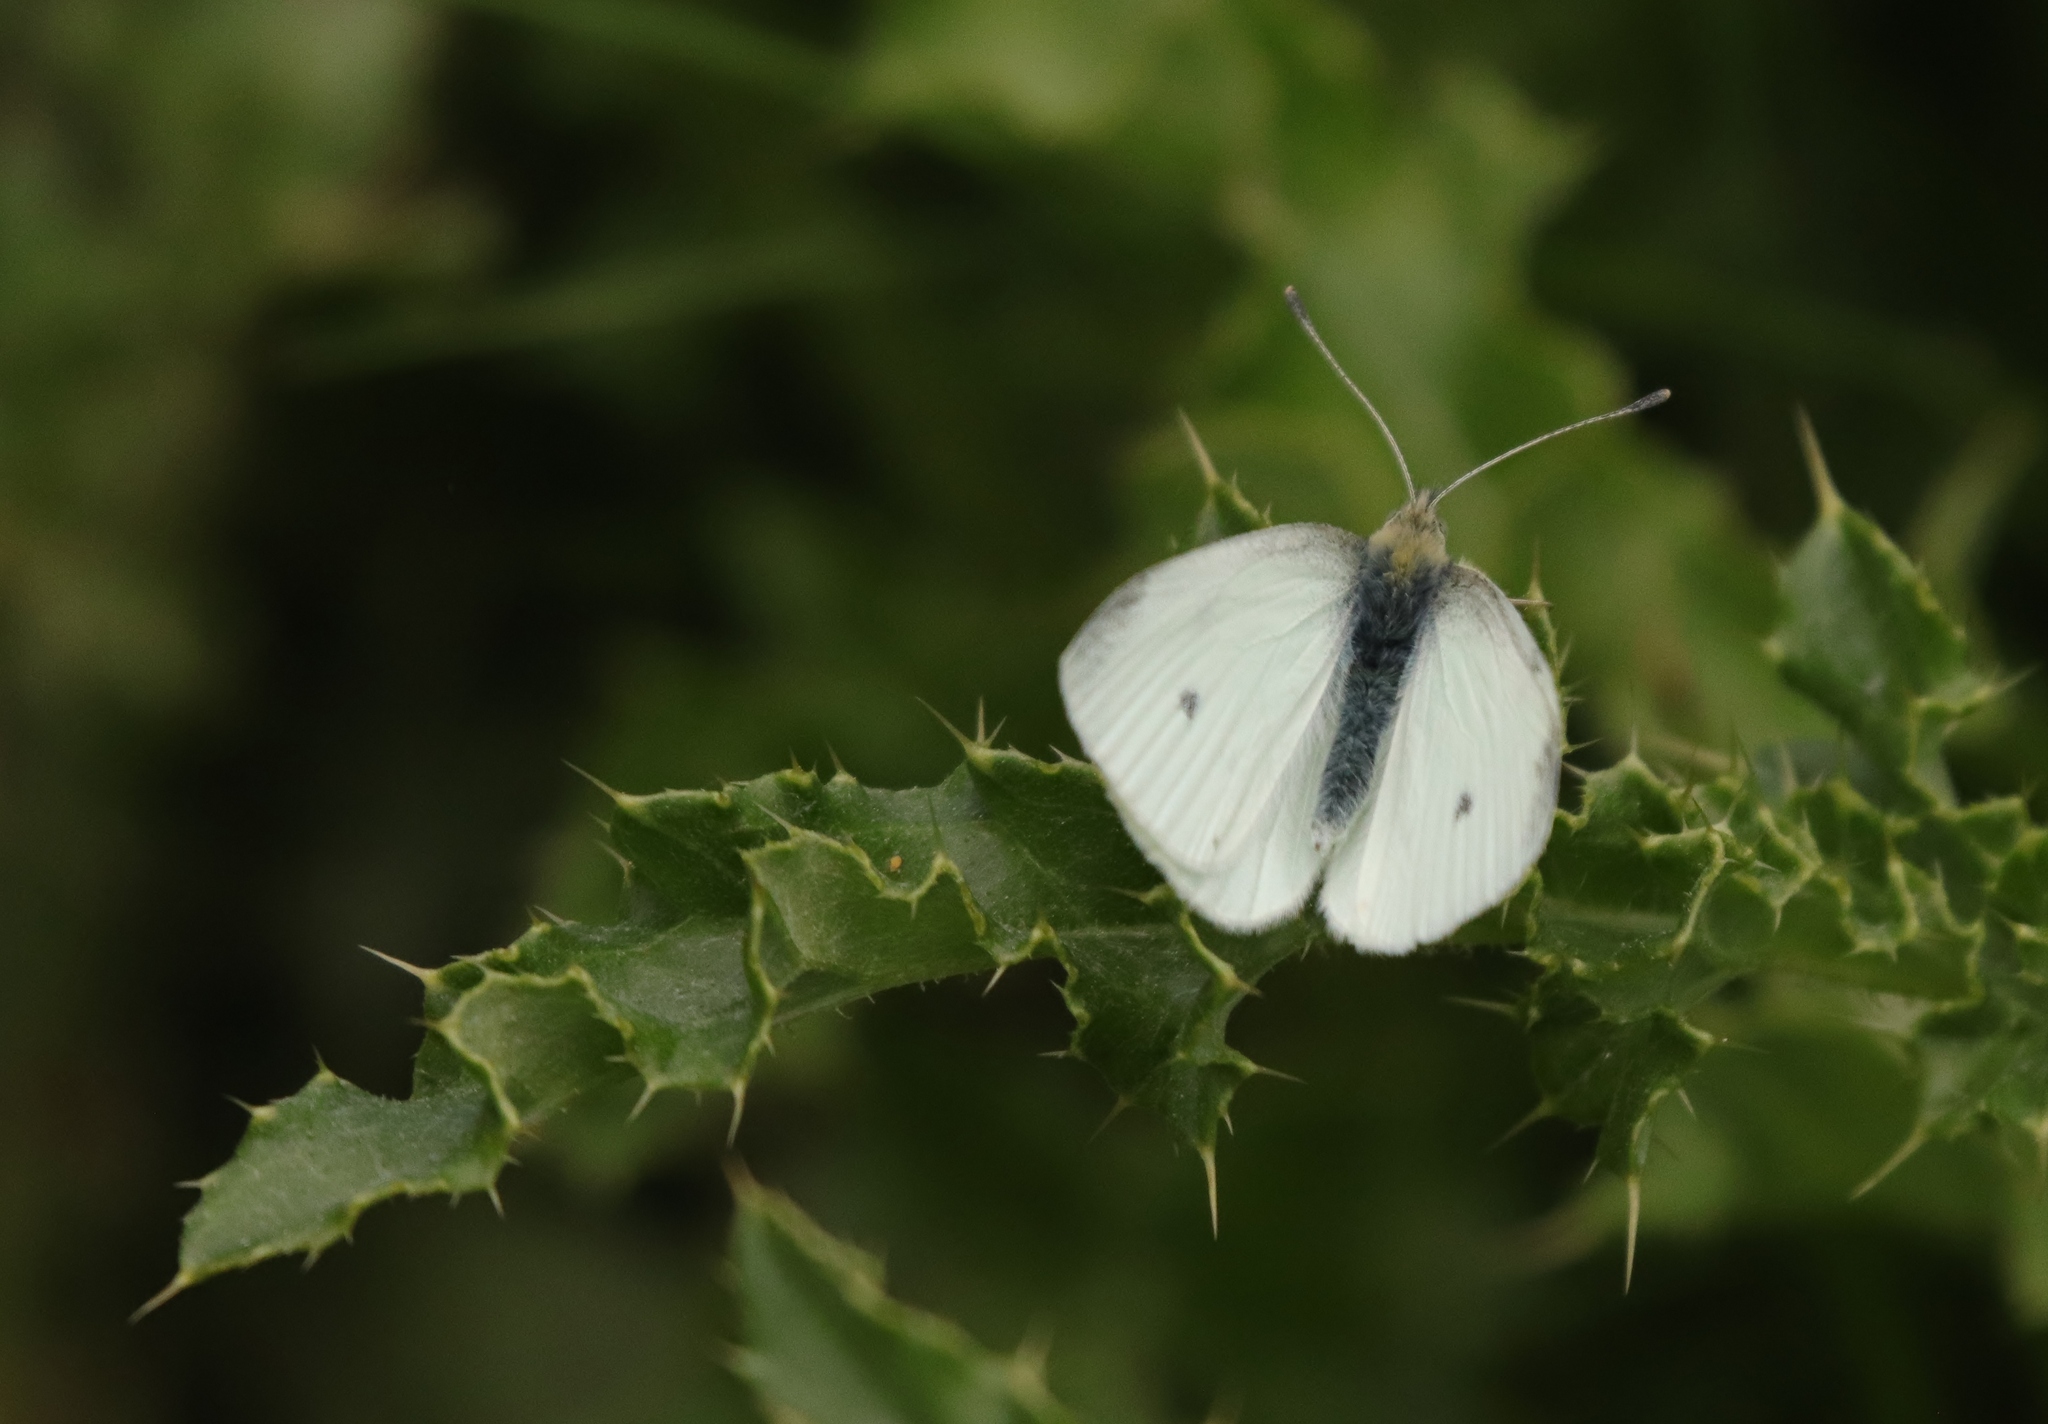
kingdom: Animalia
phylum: Arthropoda
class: Insecta
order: Lepidoptera
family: Pieridae
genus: Pieris
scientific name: Pieris rapae
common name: Small white
